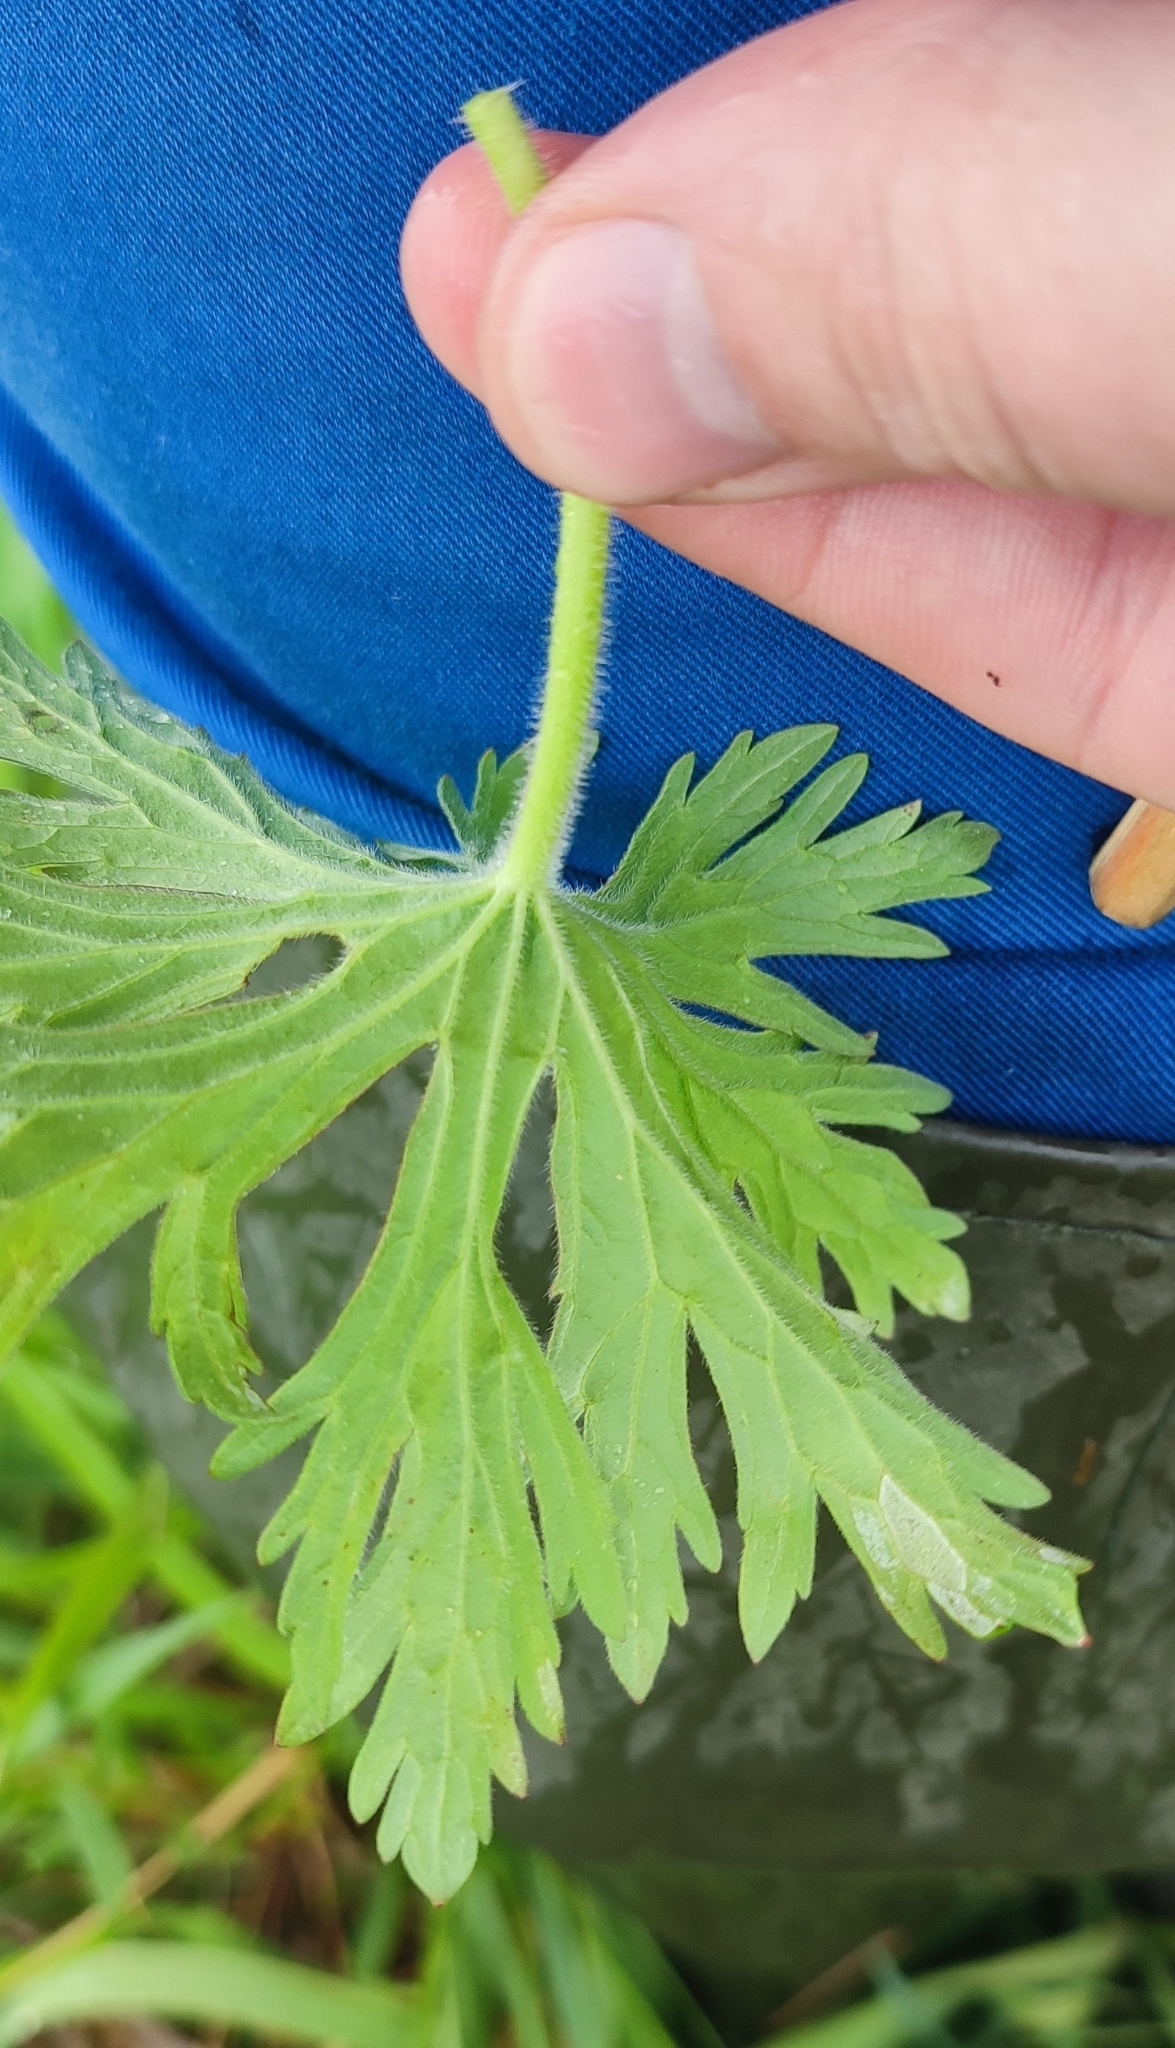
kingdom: Plantae
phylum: Tracheophyta
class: Magnoliopsida
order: Geraniales
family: Geraniaceae
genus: Geranium
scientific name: Geranium pratense
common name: Meadow crane's-bill
